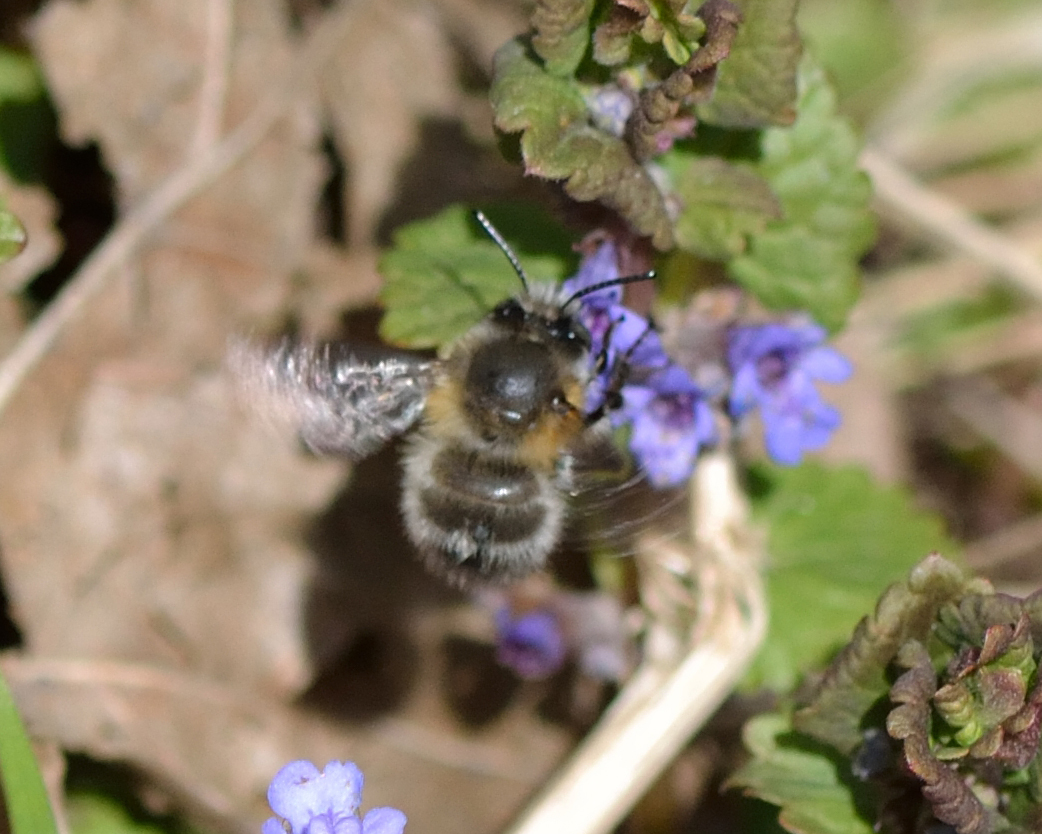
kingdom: Animalia
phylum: Arthropoda
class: Insecta
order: Hymenoptera
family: Apidae
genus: Anthophora
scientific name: Anthophora plumipes
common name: Hairy-footed flower bee
